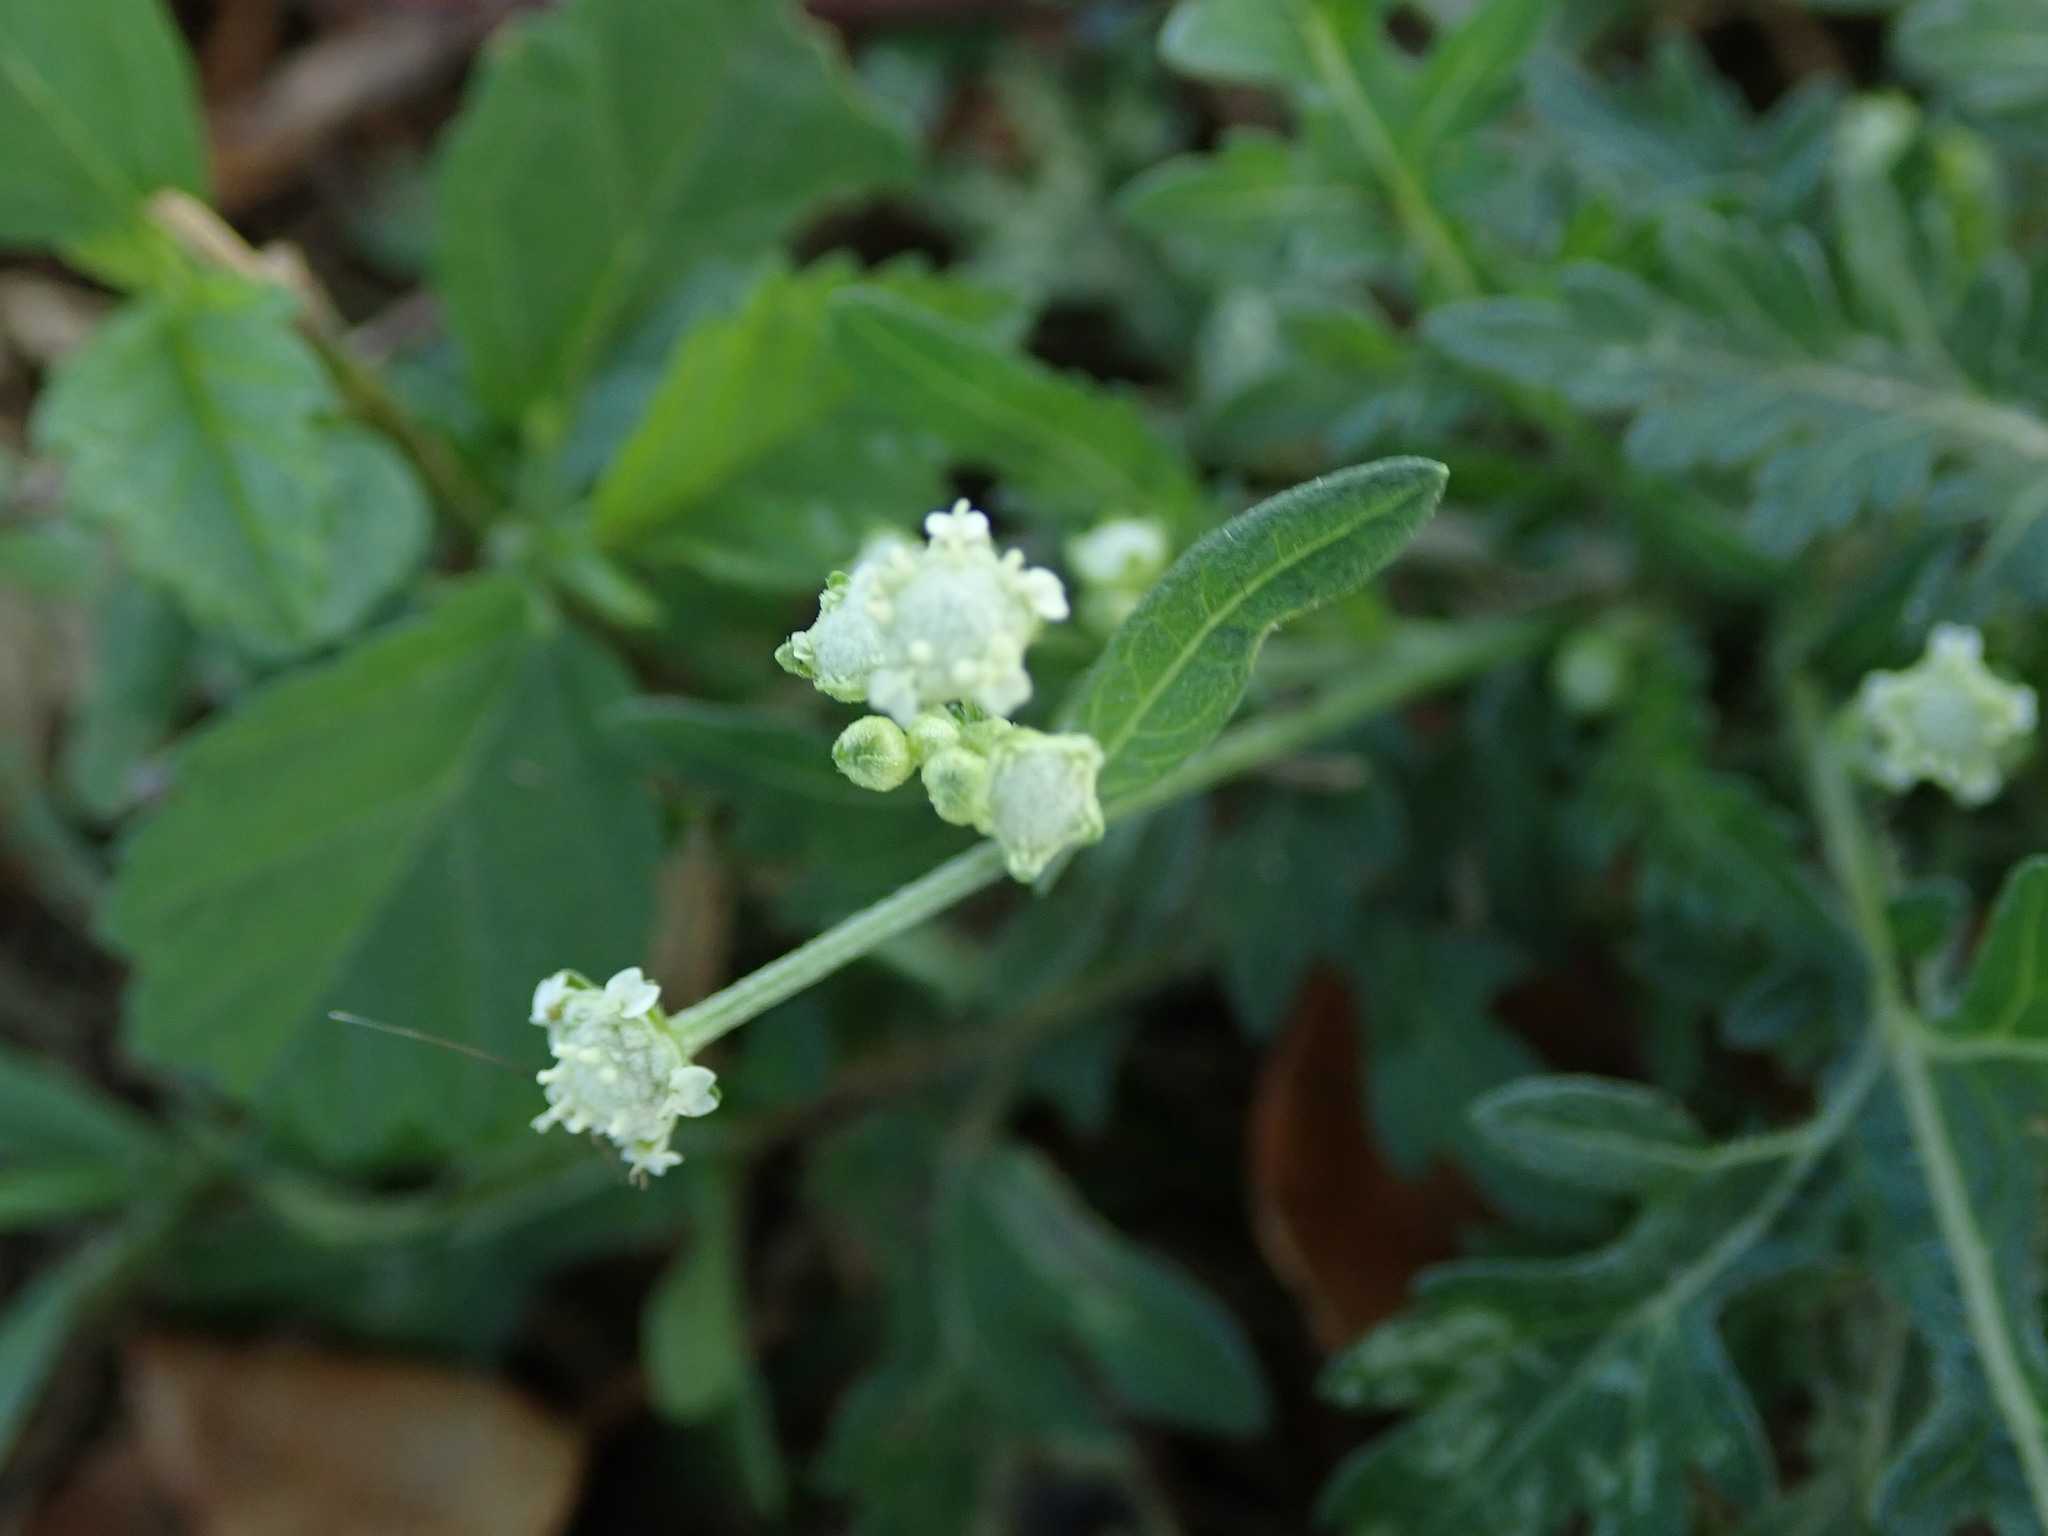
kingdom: Plantae
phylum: Tracheophyta
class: Magnoliopsida
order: Asterales
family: Asteraceae
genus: Parthenium
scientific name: Parthenium hysterophorus
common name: Santa maria feverfew
